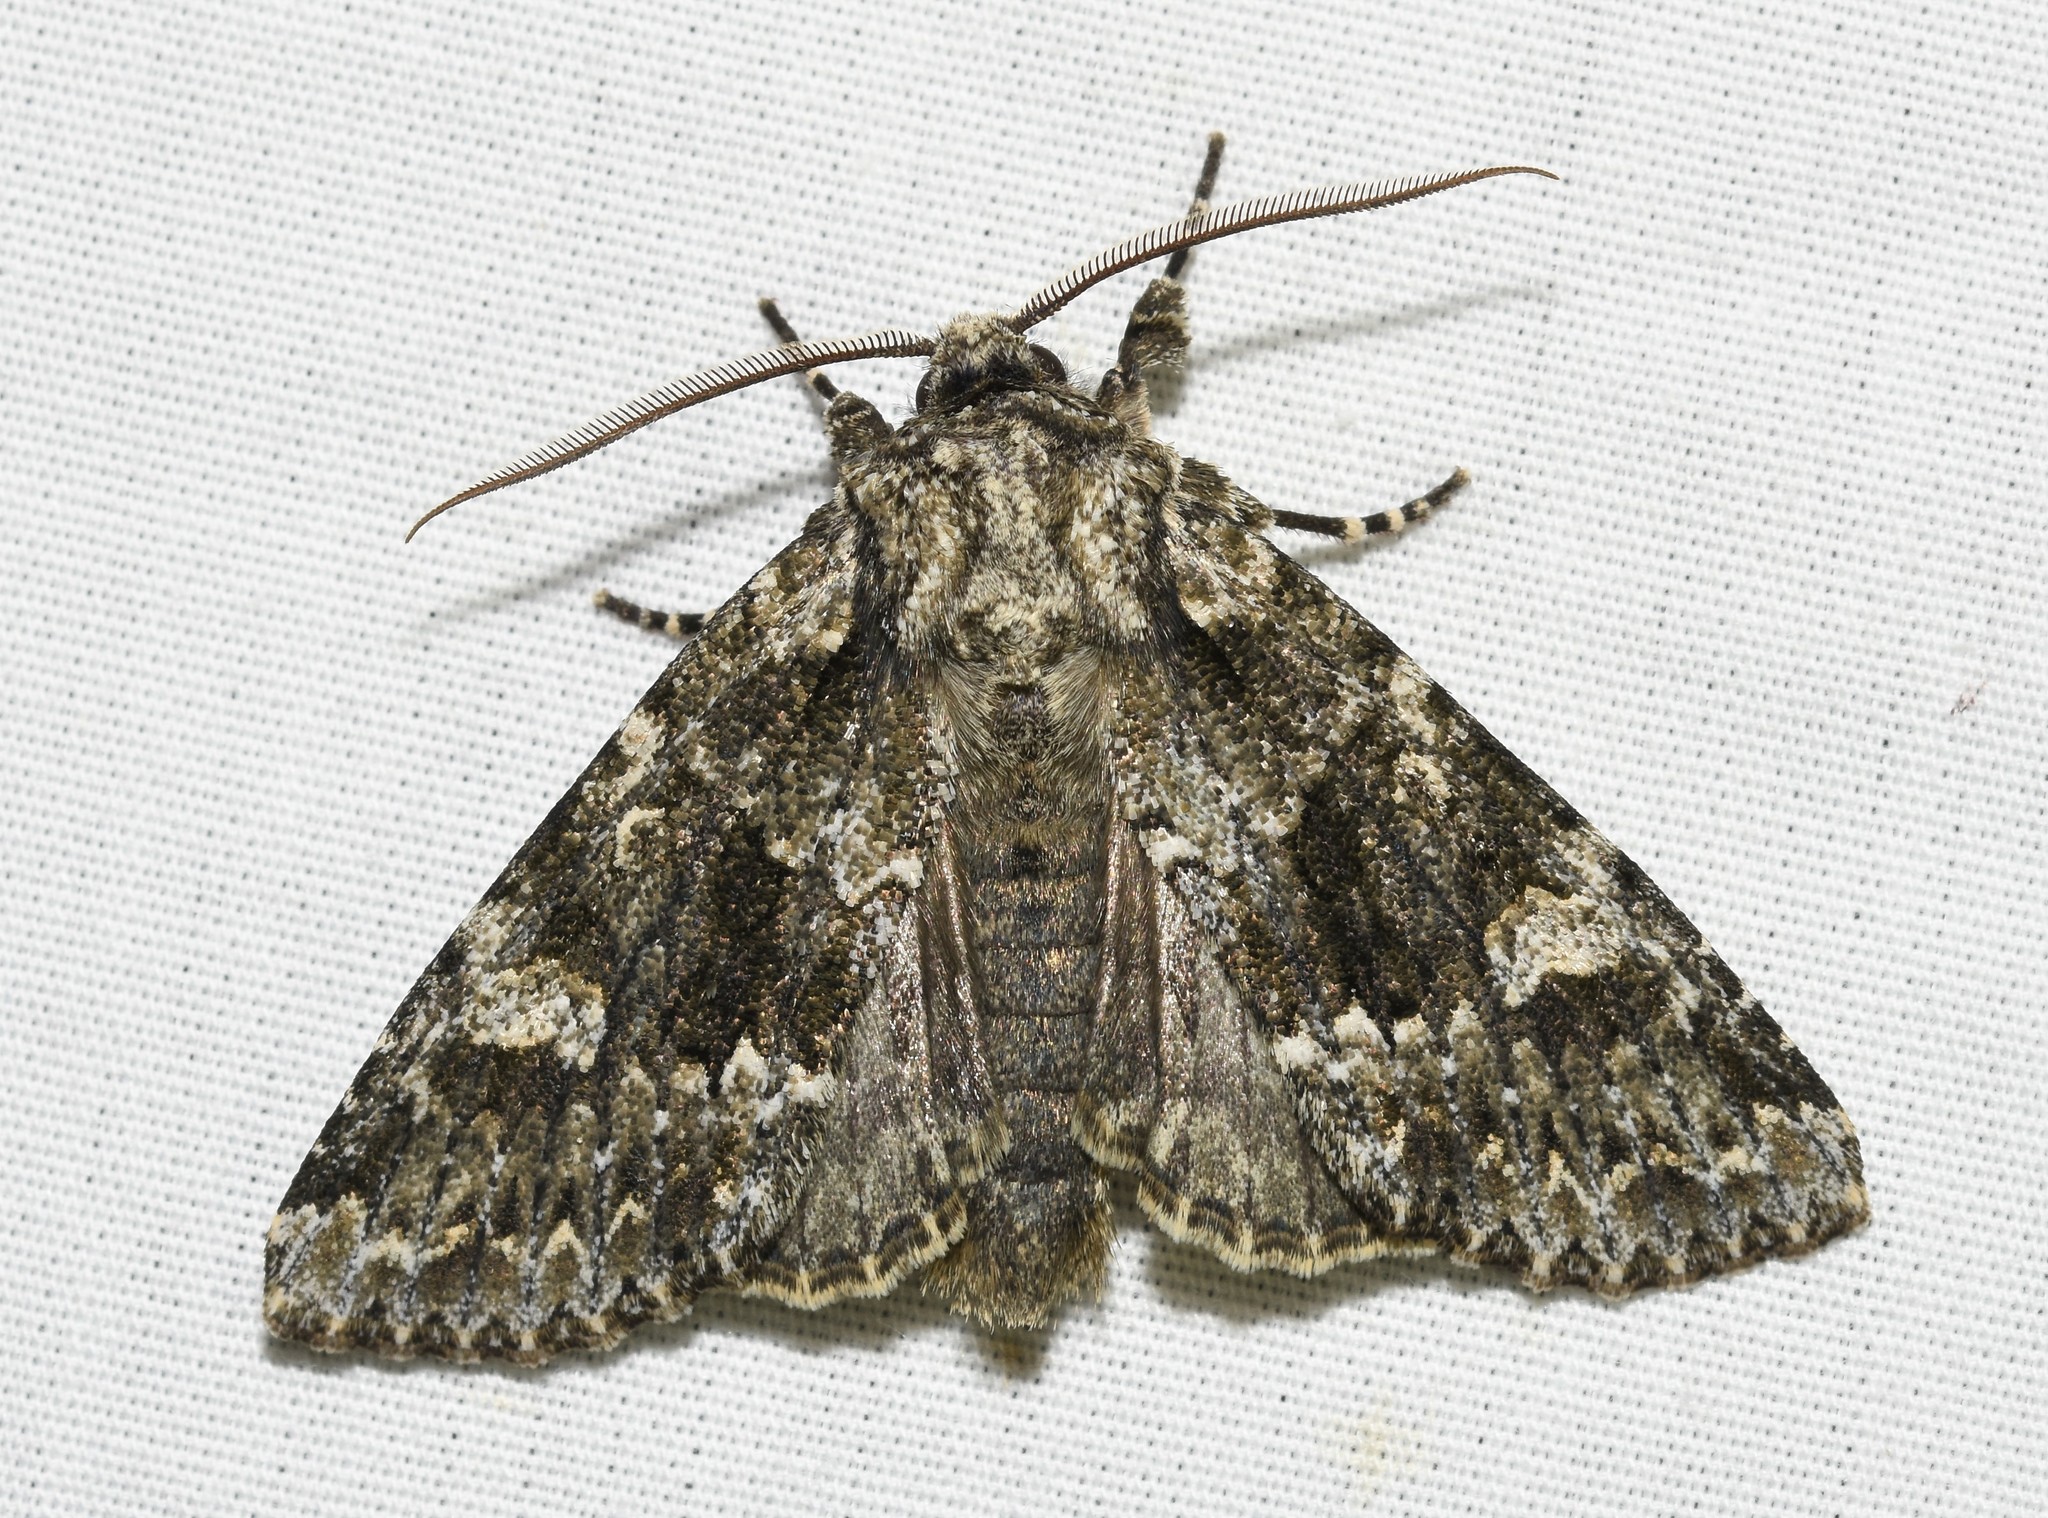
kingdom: Animalia
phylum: Arthropoda
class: Insecta
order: Lepidoptera
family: Noctuidae
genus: Pachypolia
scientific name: Pachypolia atricornis
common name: Autumnal noctuid moth
